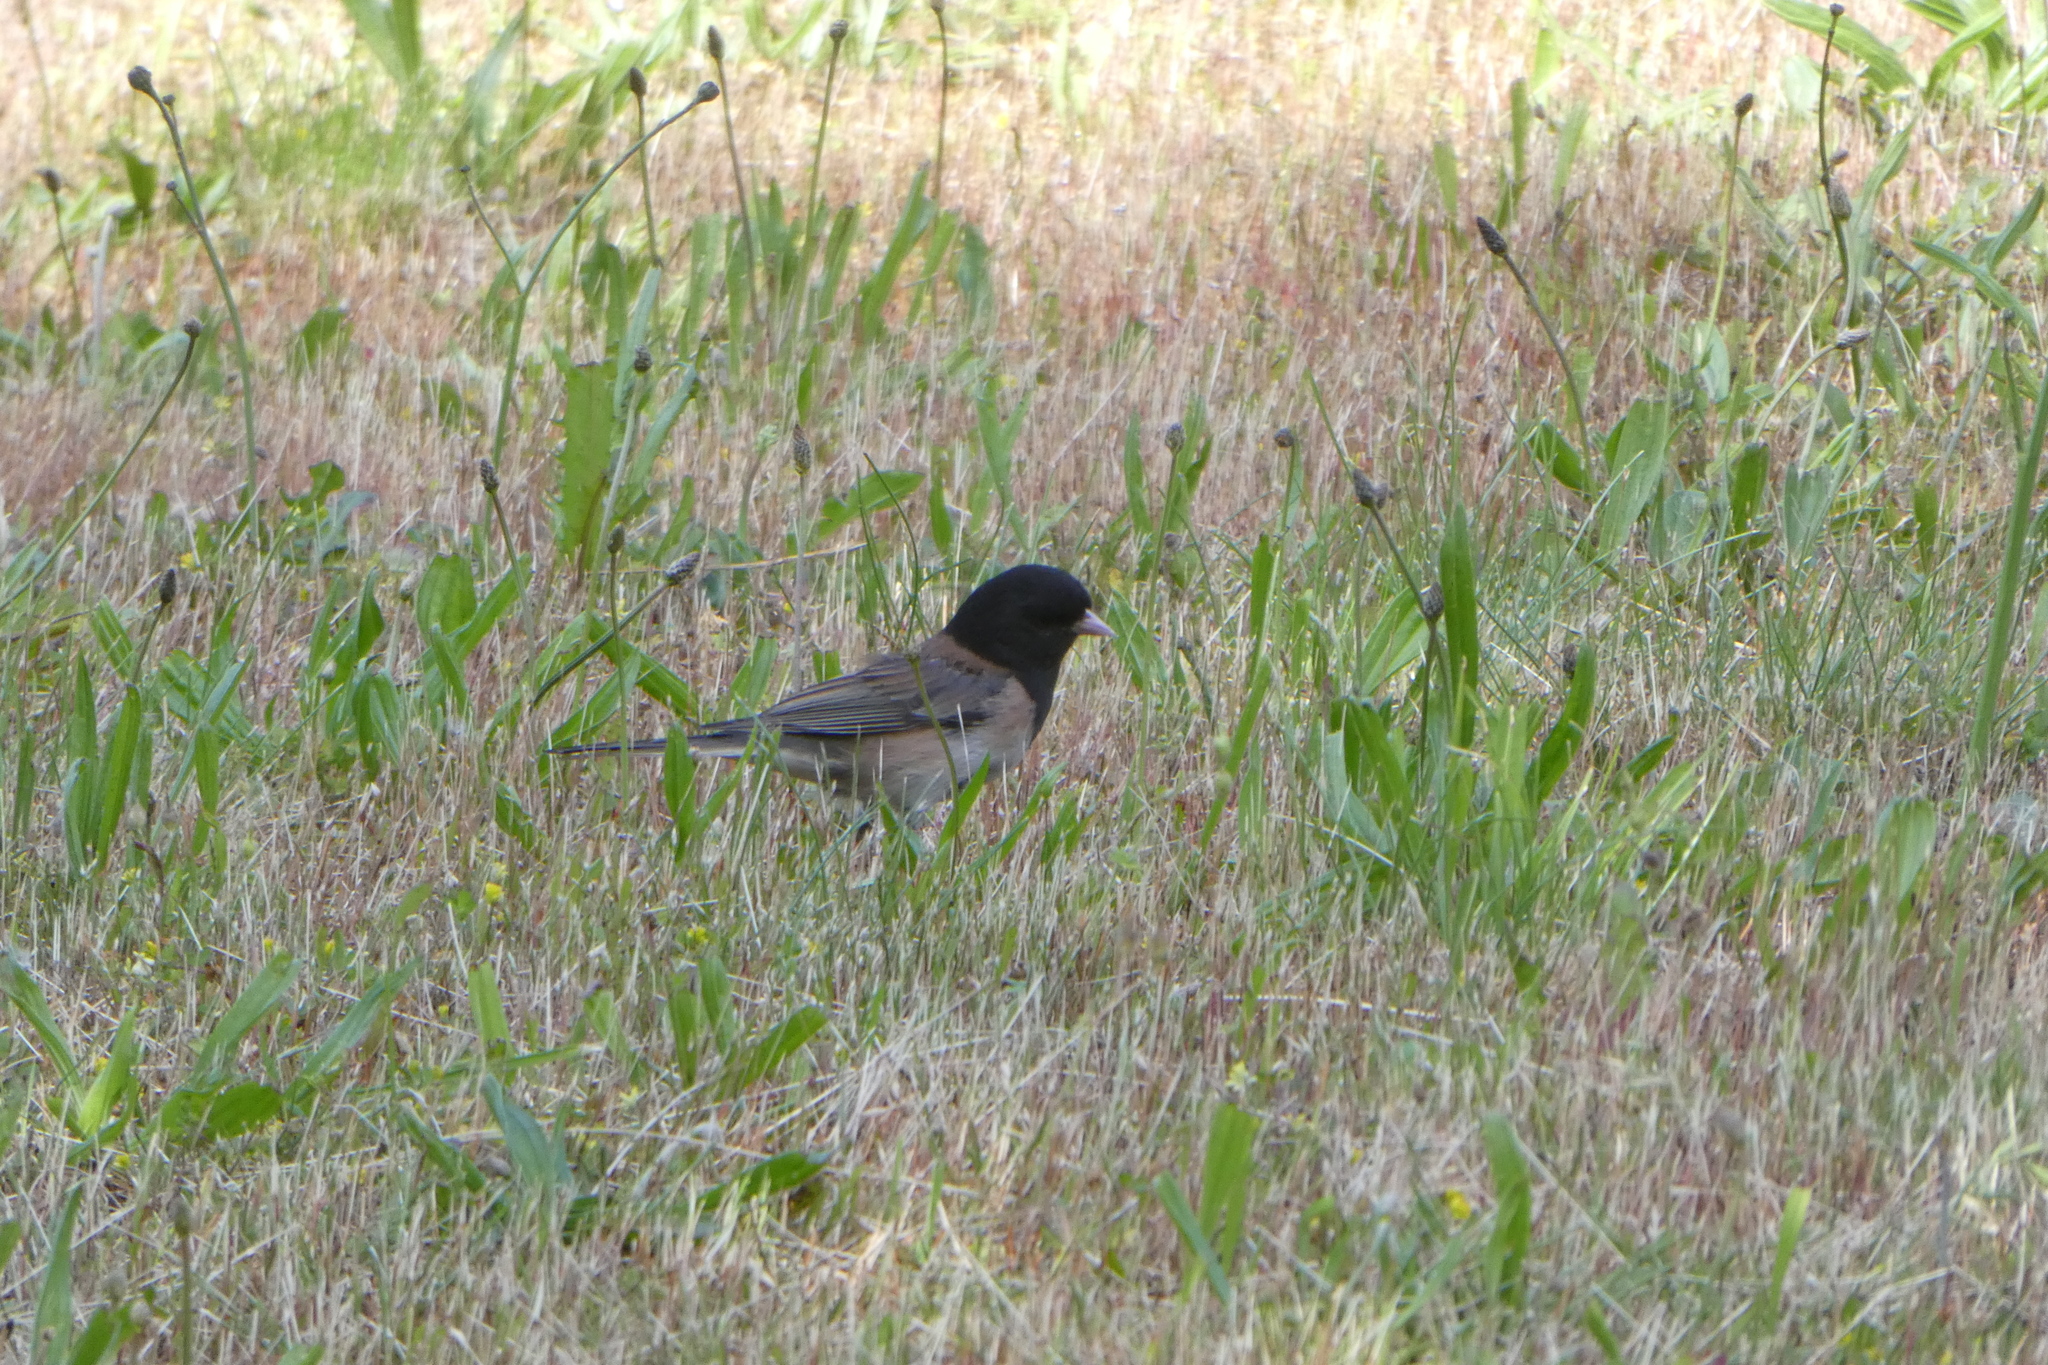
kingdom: Animalia
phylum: Chordata
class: Aves
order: Passeriformes
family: Passerellidae
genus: Junco
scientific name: Junco hyemalis
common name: Dark-eyed junco
